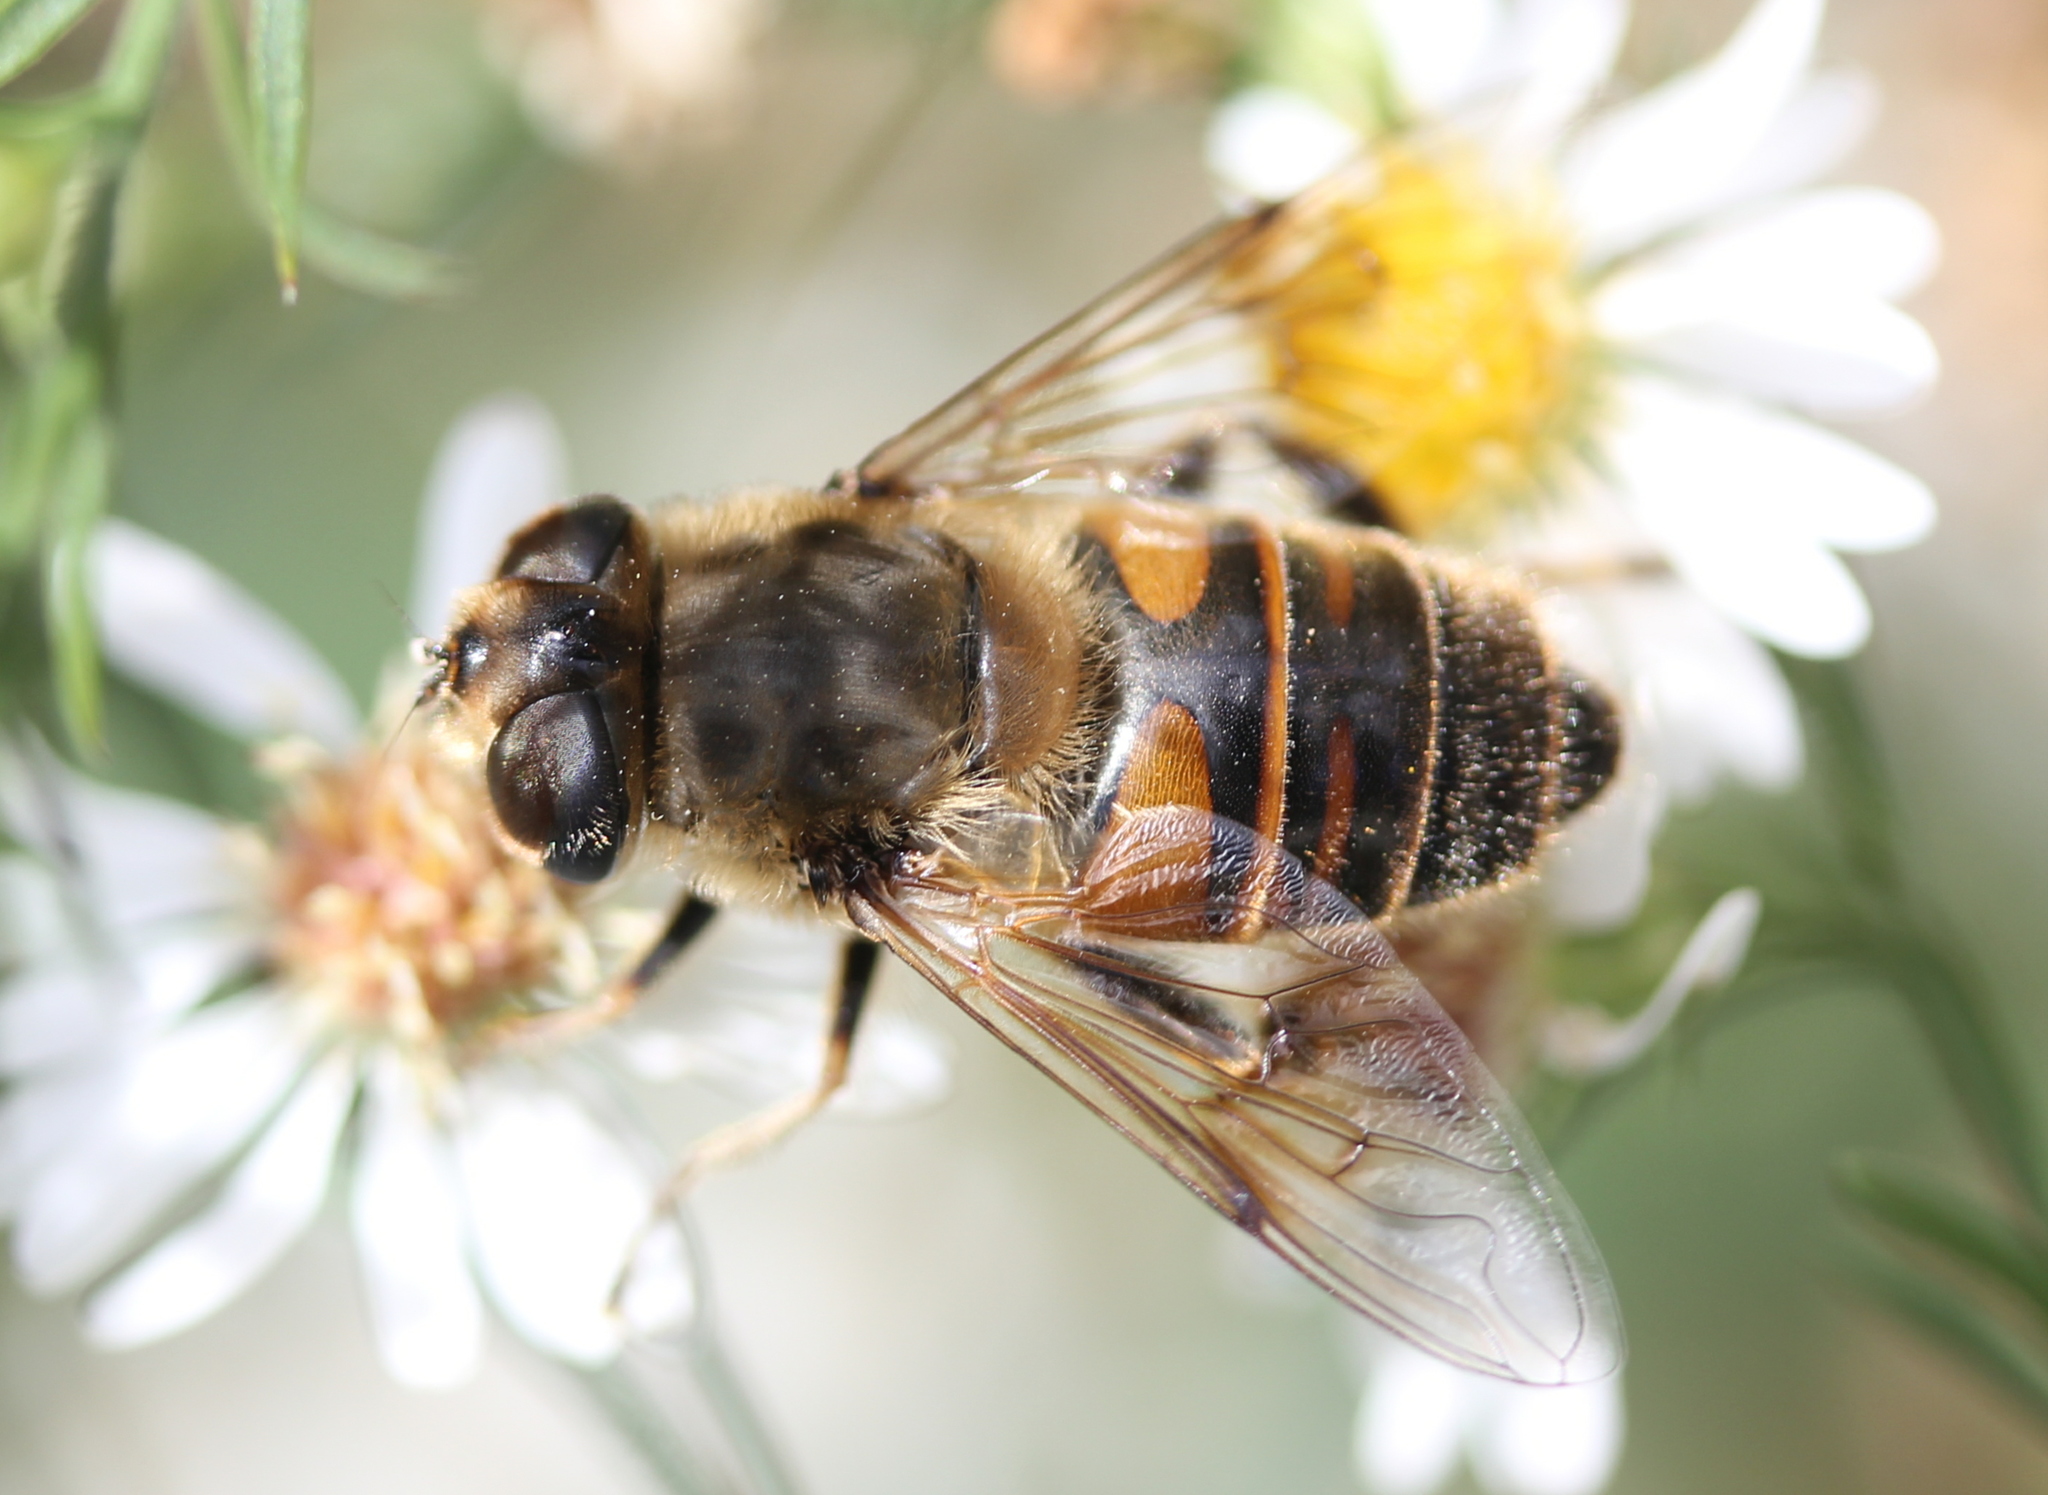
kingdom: Animalia
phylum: Arthropoda
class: Insecta
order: Diptera
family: Syrphidae
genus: Eristalis
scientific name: Eristalis tenax
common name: Drone fly
